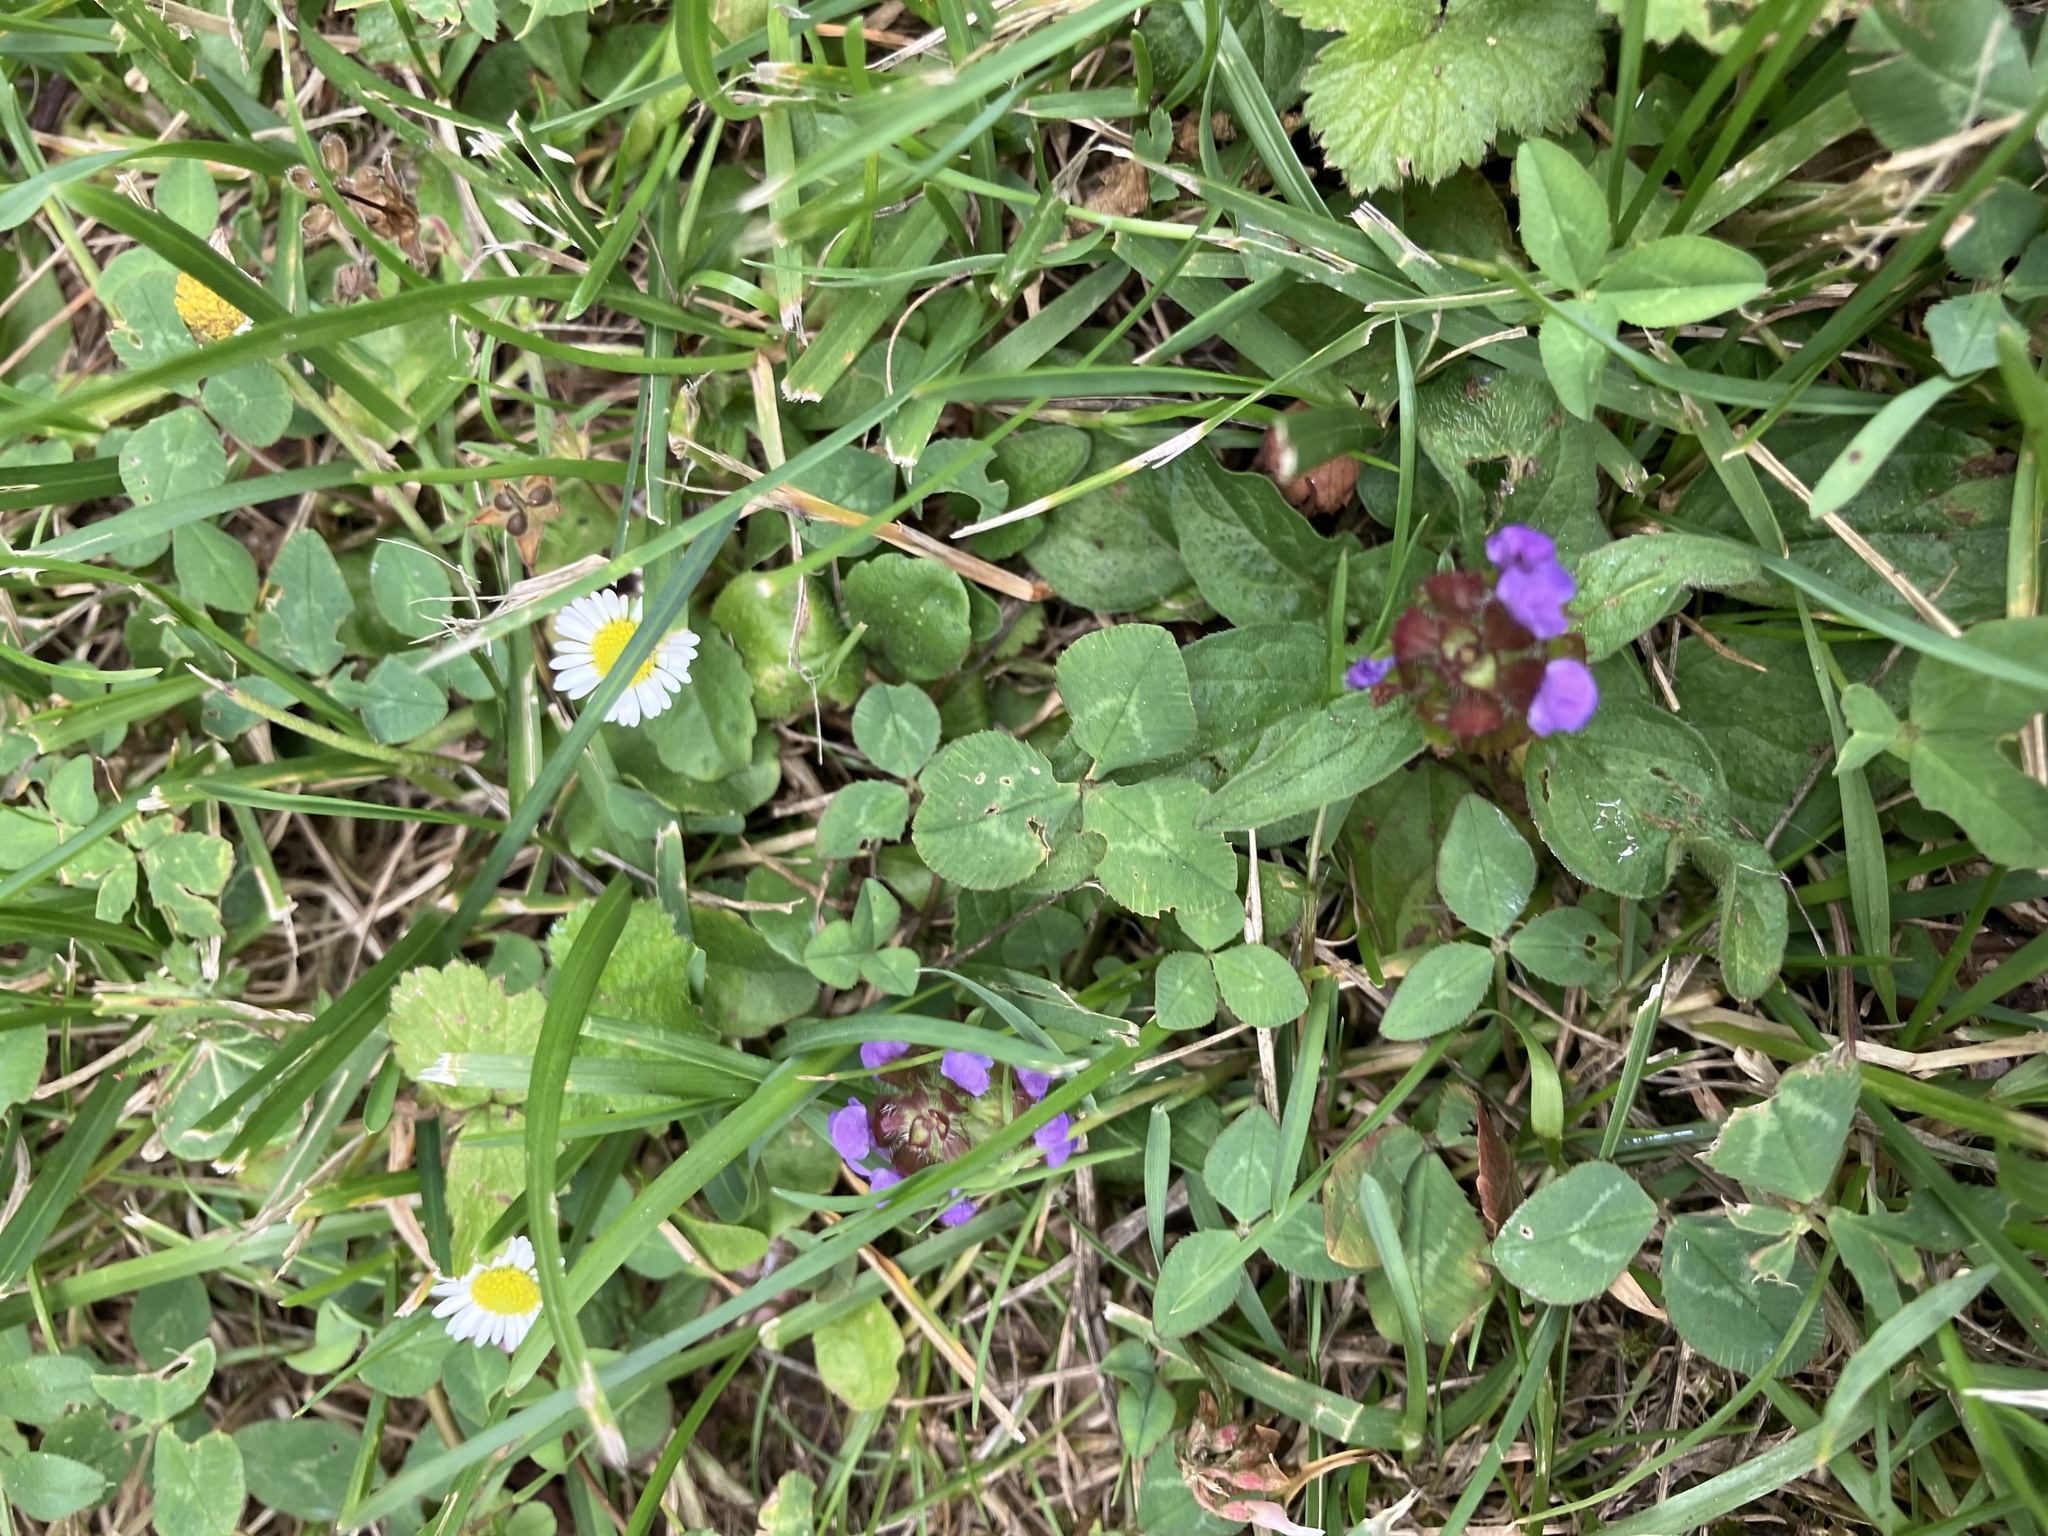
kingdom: Plantae
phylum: Tracheophyta
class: Magnoliopsida
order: Lamiales
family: Lamiaceae
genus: Prunella
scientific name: Prunella vulgaris
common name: Heal-all
